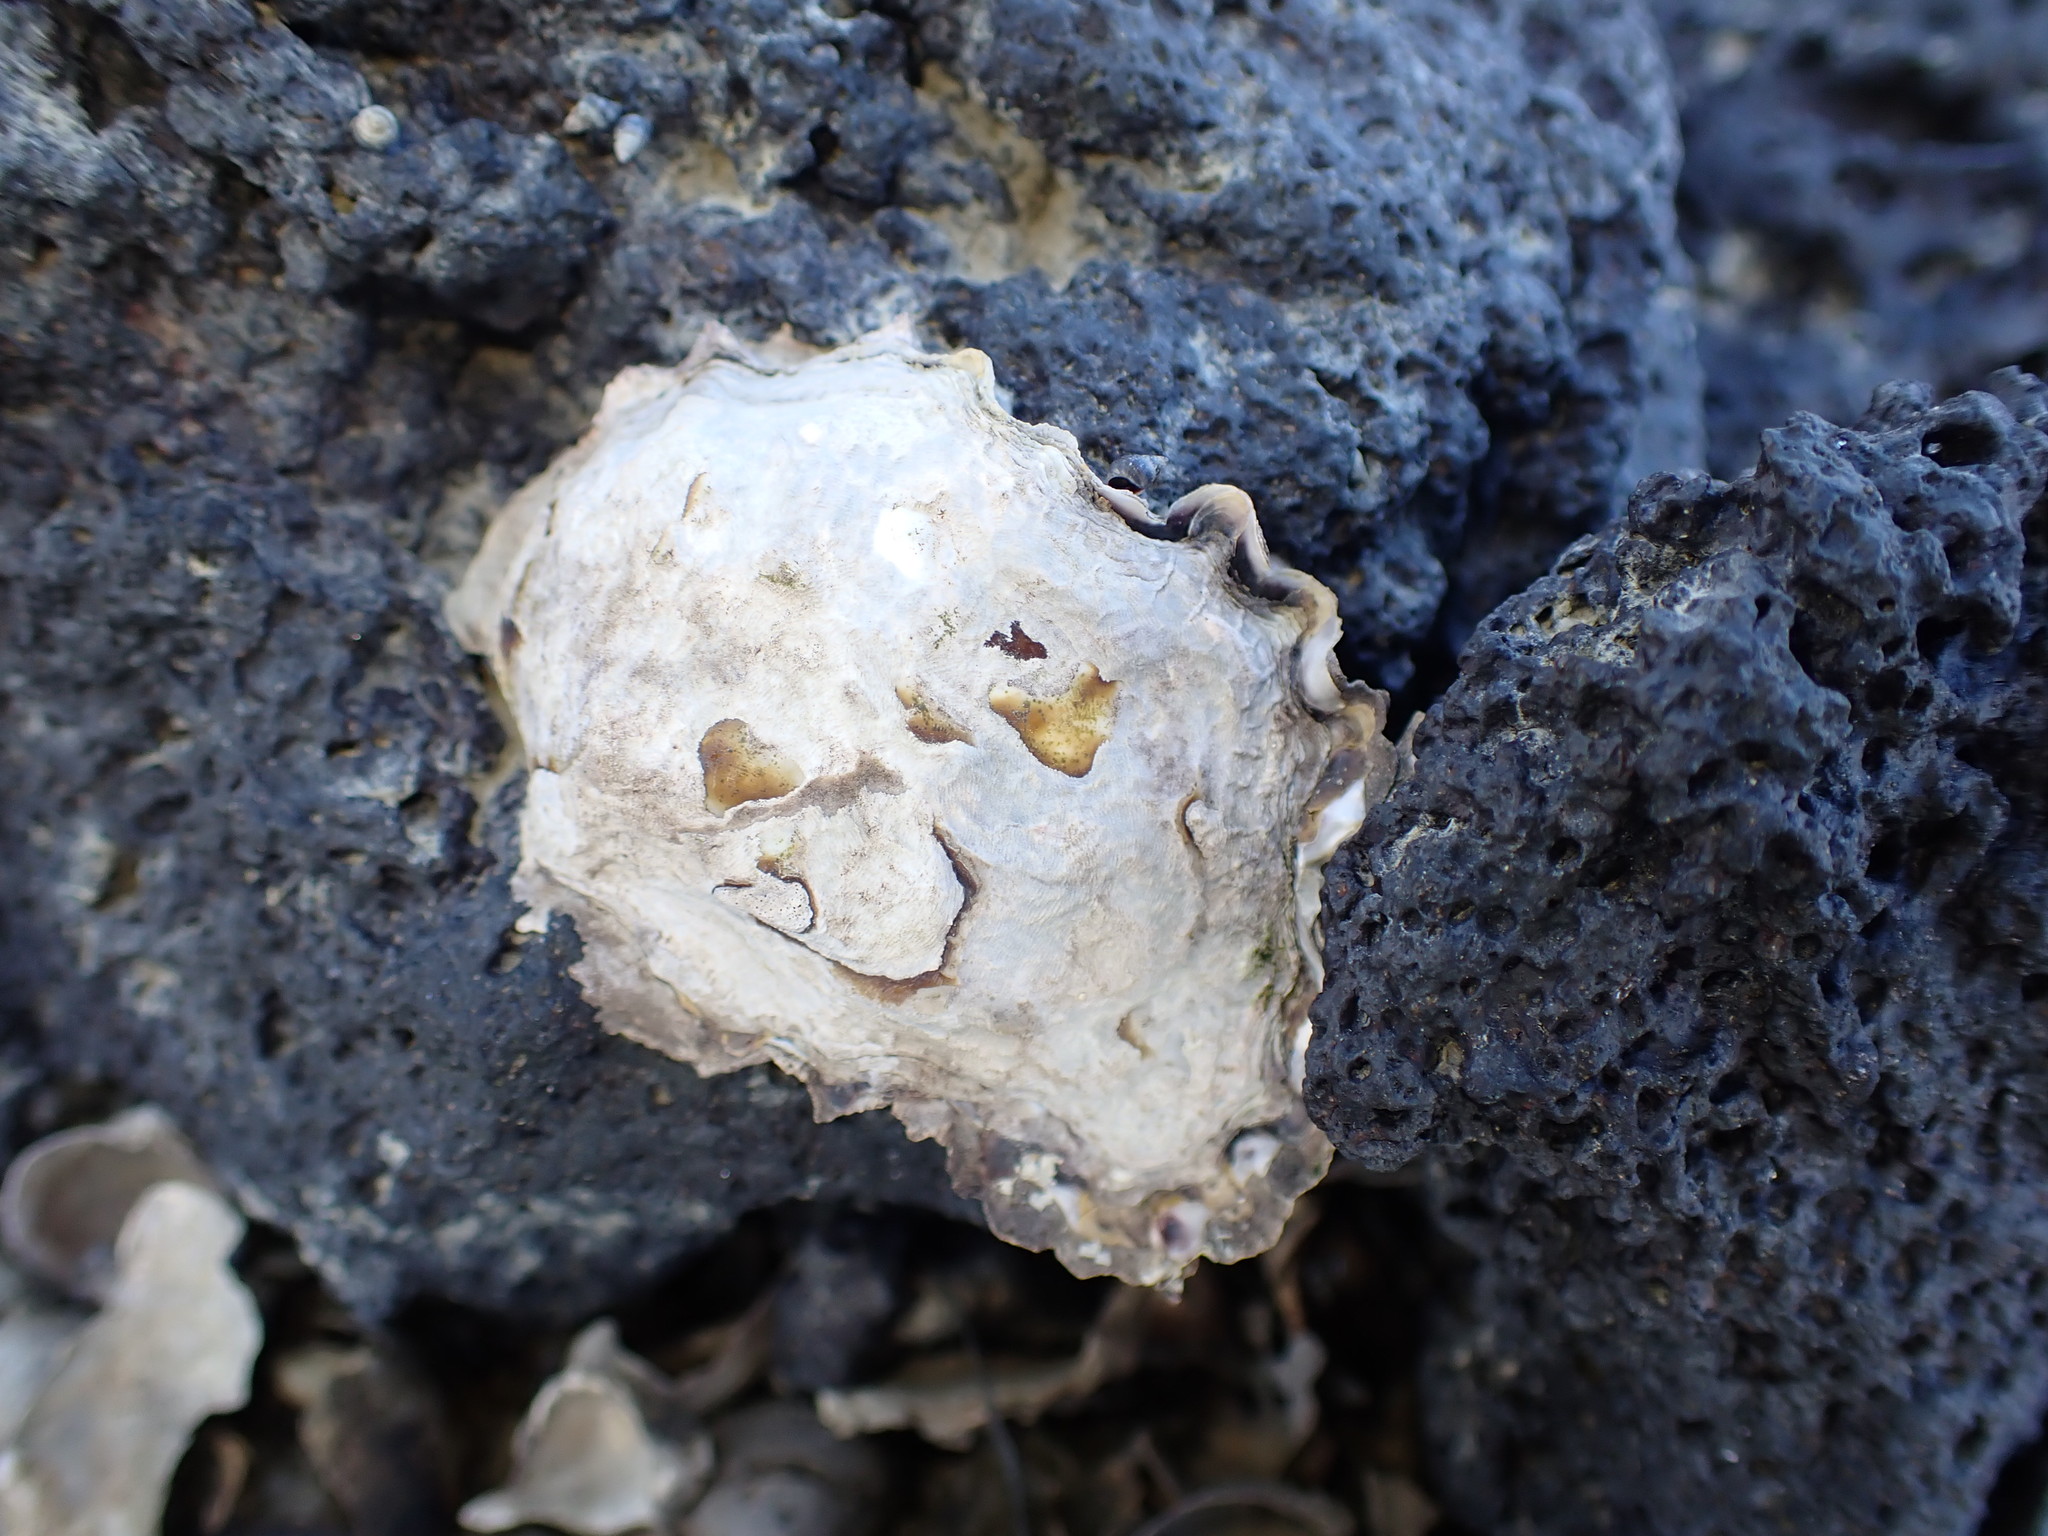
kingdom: Animalia
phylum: Mollusca
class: Bivalvia
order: Ostreida
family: Ostreidae
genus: Saccostrea
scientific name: Saccostrea glomerata
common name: Sydney cupped oyster
